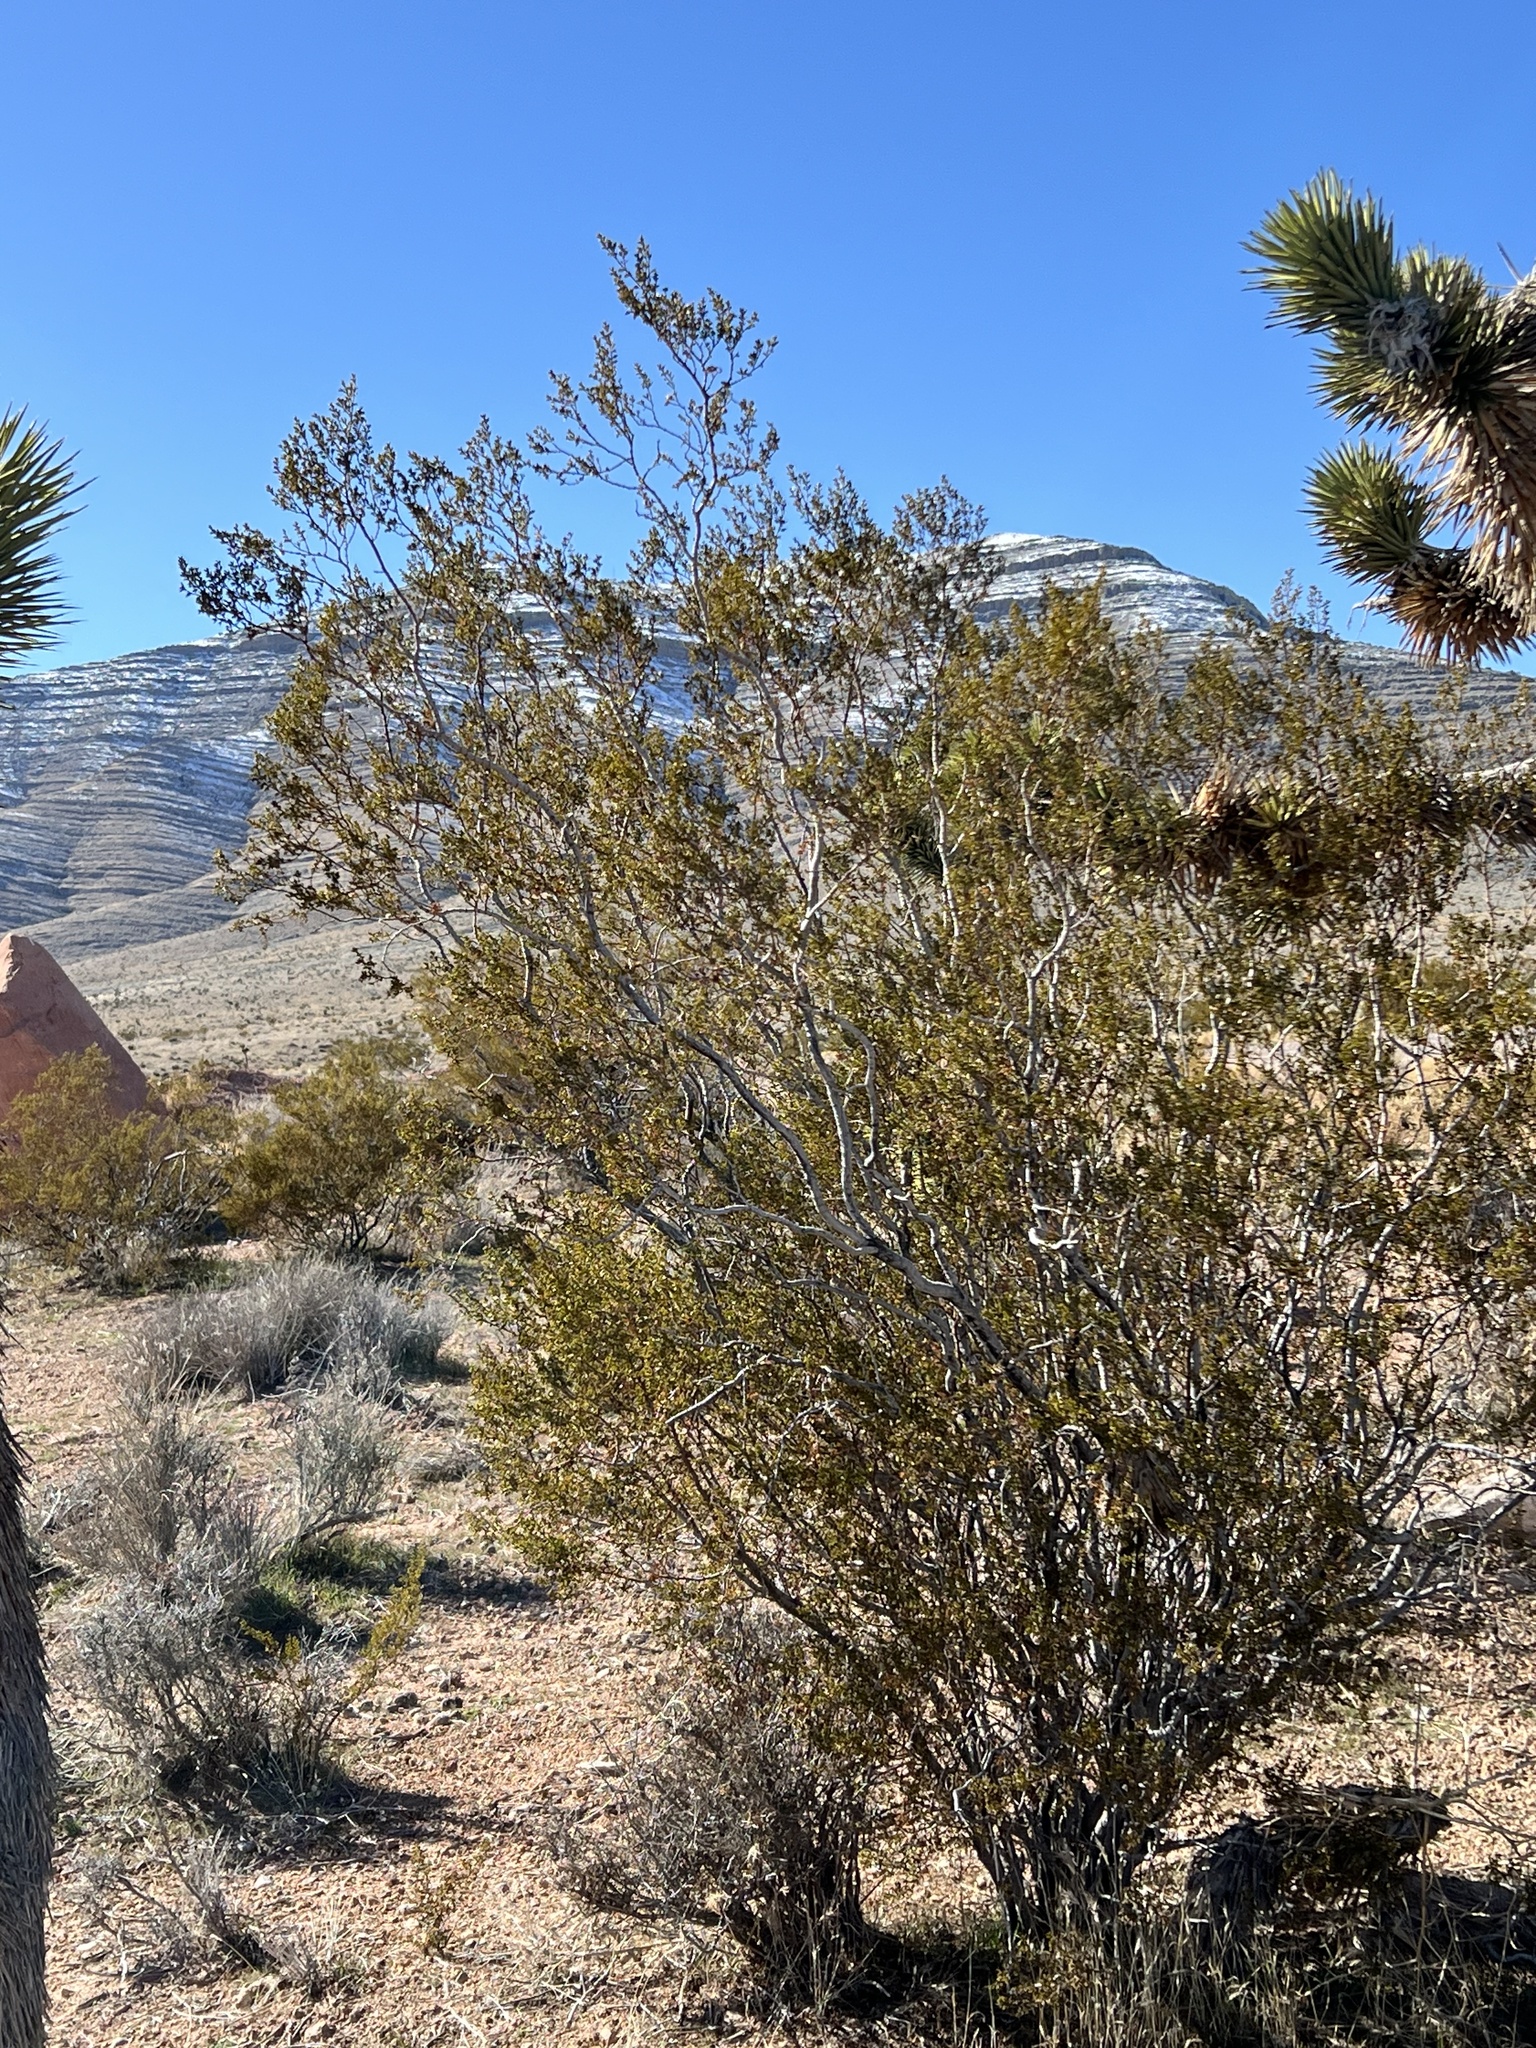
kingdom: Plantae
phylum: Tracheophyta
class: Magnoliopsida
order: Zygophyllales
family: Zygophyllaceae
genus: Larrea
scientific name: Larrea tridentata
